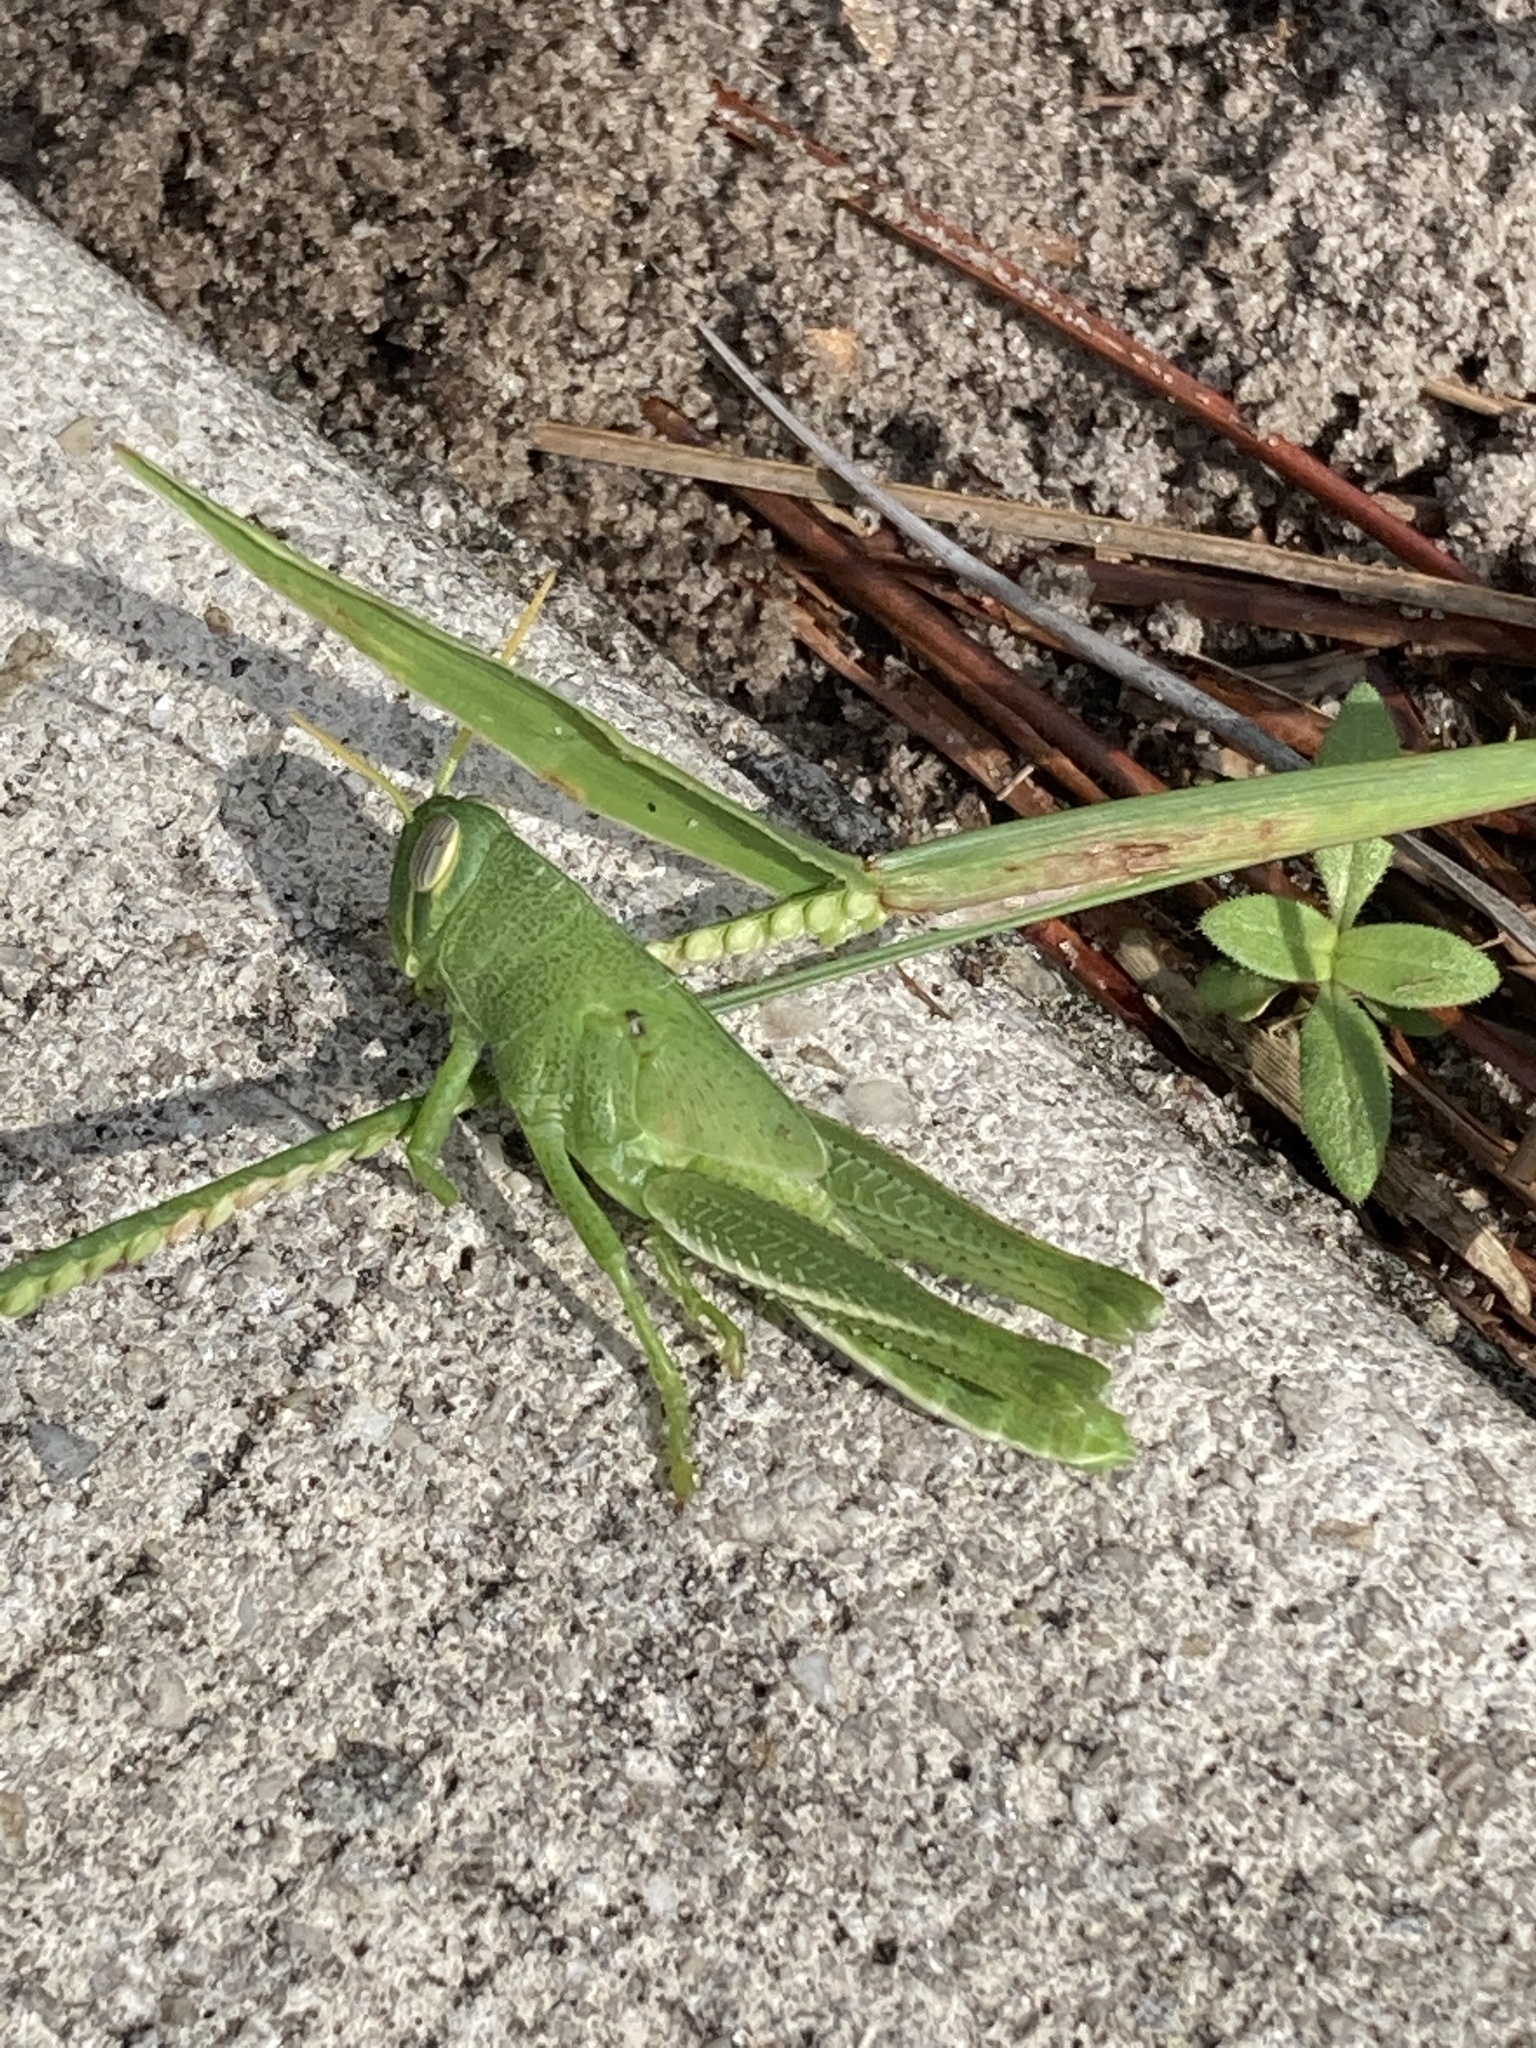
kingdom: Animalia
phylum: Arthropoda
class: Insecta
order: Orthoptera
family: Acrididae
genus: Schistocerca
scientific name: Schistocerca serialis
